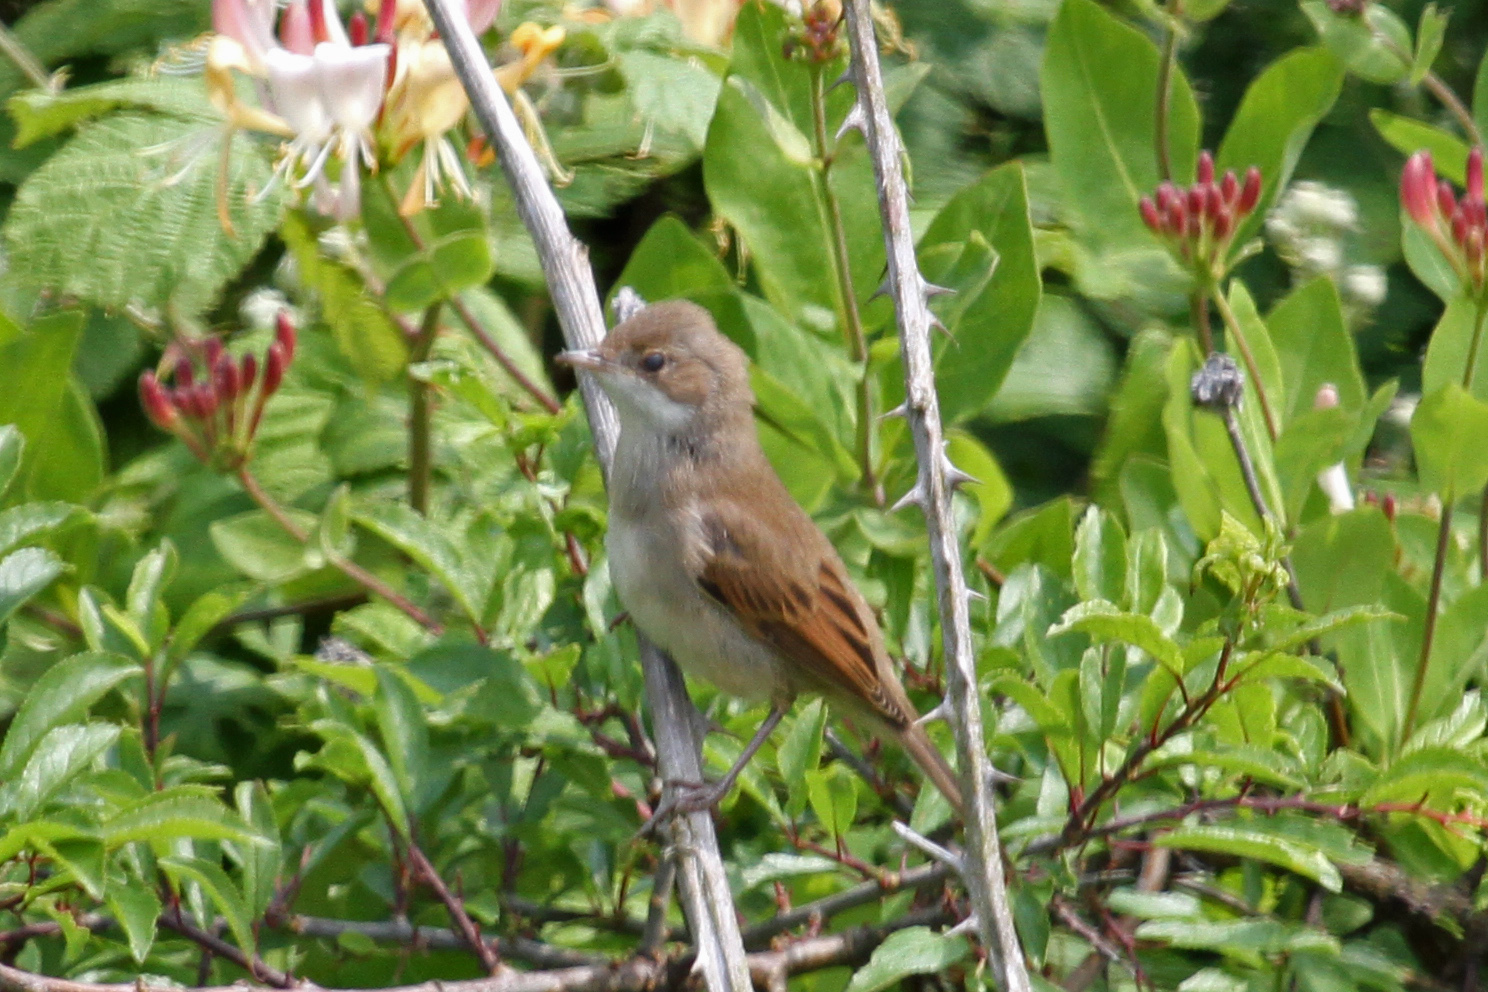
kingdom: Animalia
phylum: Chordata
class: Aves
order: Passeriformes
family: Sylviidae
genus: Sylvia
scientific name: Sylvia communis
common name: Common whitethroat
